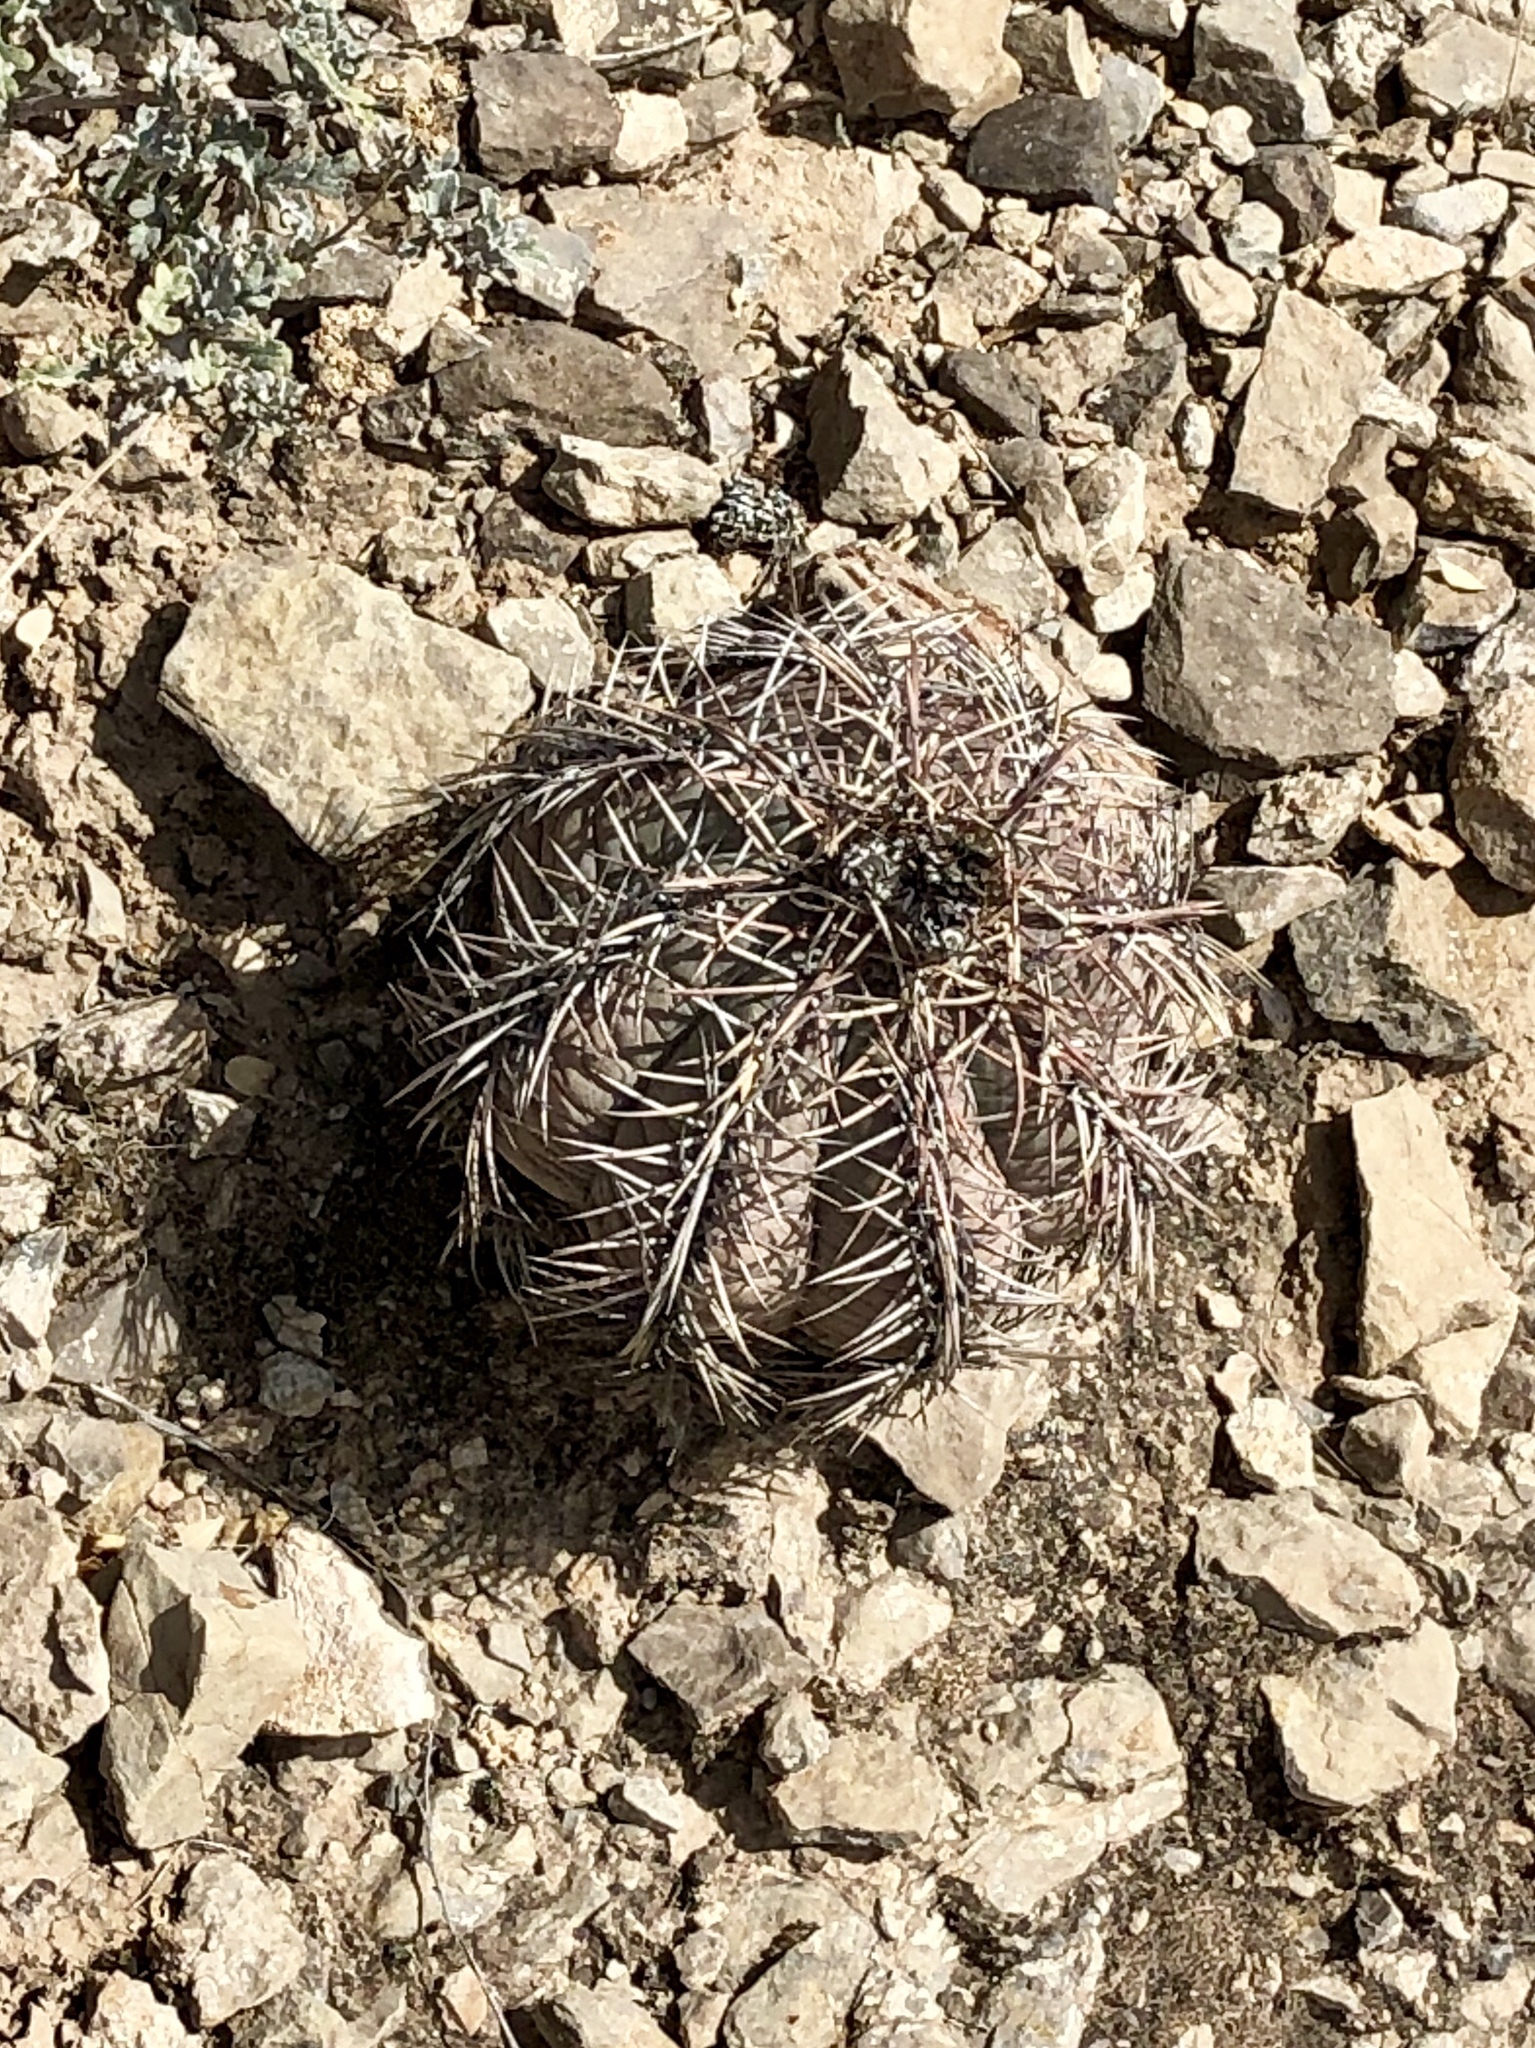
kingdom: Plantae
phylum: Tracheophyta
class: Magnoliopsida
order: Caryophyllales
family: Cactaceae
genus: Echinocactus
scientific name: Echinocactus horizonthalonius
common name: Devilshead
